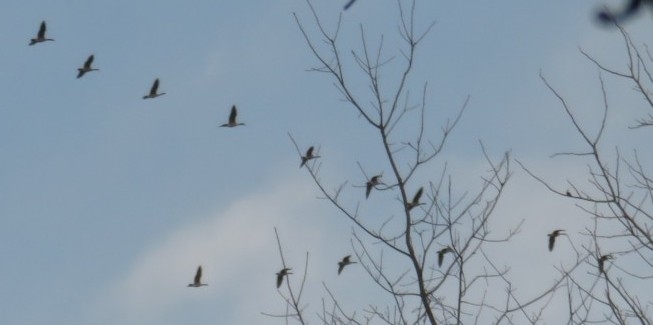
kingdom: Animalia
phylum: Chordata
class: Aves
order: Anseriformes
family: Anatidae
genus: Branta
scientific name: Branta canadensis
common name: Canada goose
